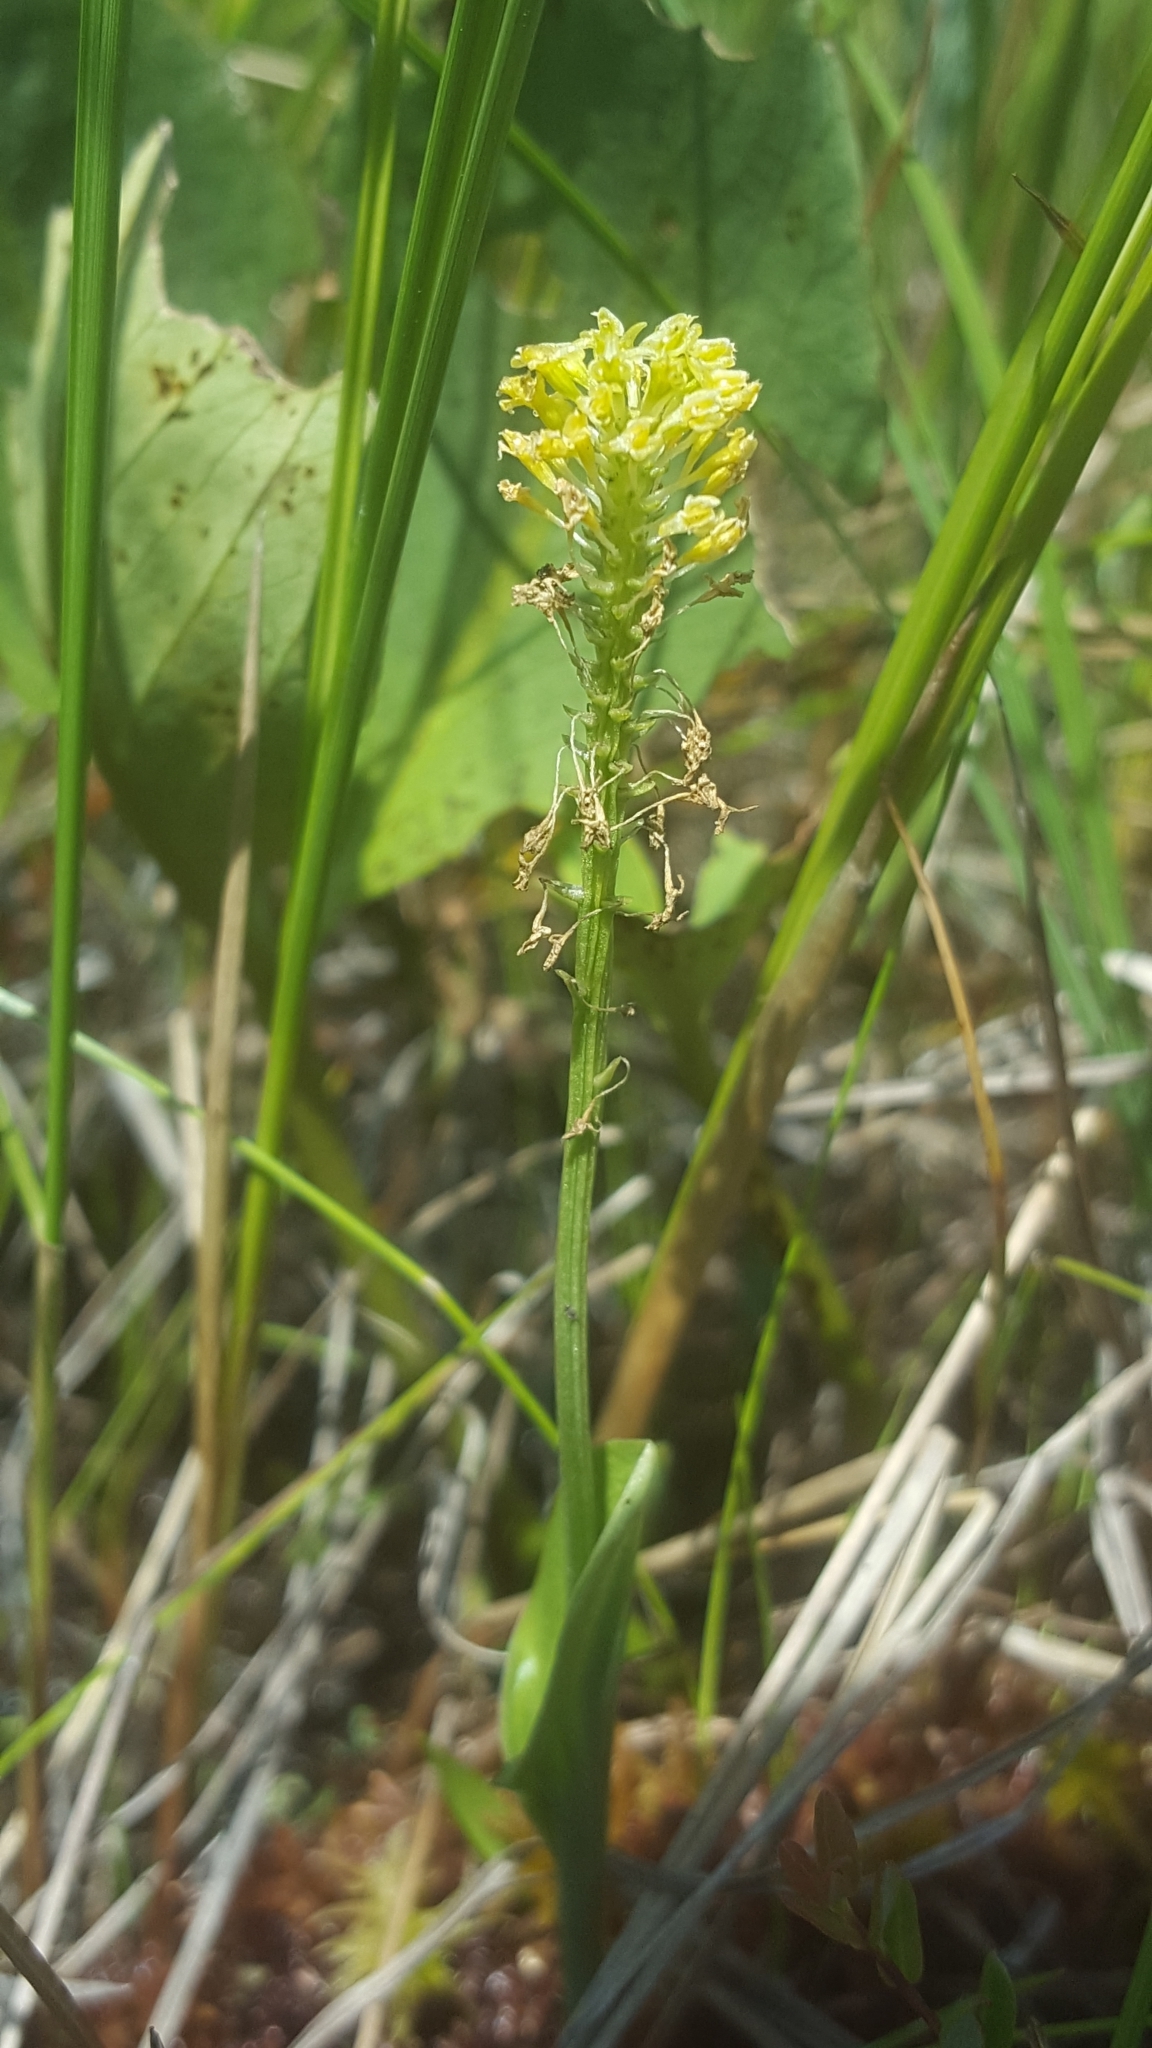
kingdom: Plantae
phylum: Tracheophyta
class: Liliopsida
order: Asparagales
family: Orchidaceae
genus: Malaxis
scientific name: Malaxis unifolia
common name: Green adder's-mouth
